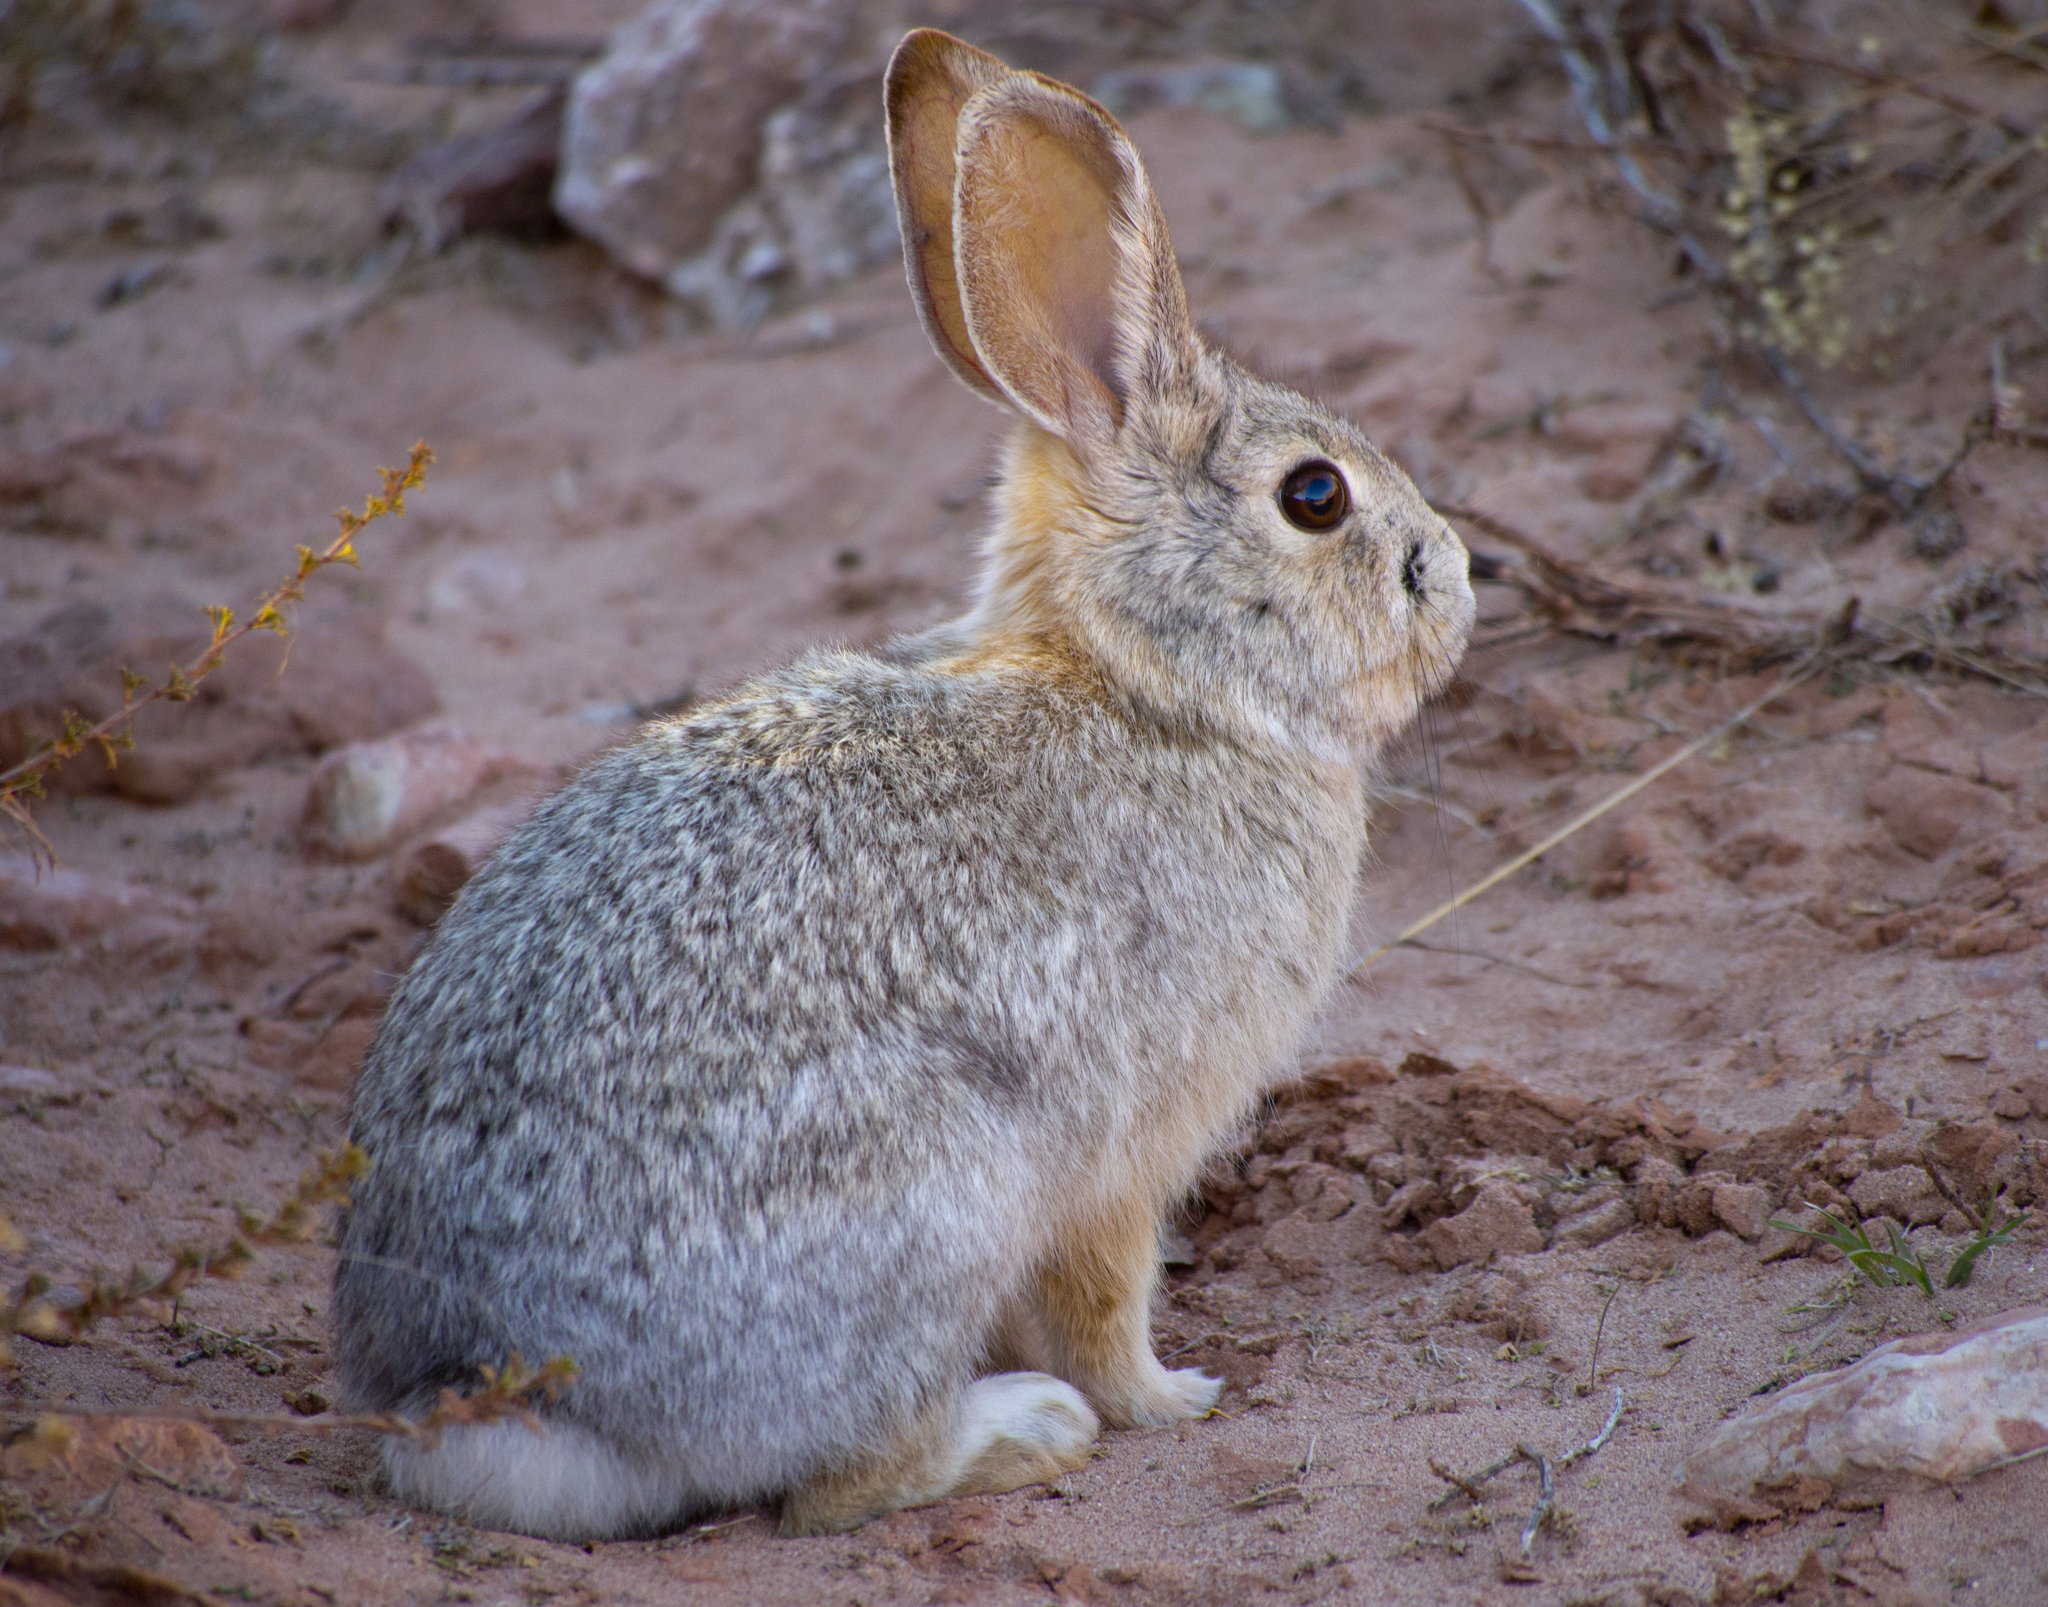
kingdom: Animalia
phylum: Chordata
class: Mammalia
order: Lagomorpha
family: Leporidae
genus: Sylvilagus
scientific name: Sylvilagus audubonii
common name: Desert cottontail
